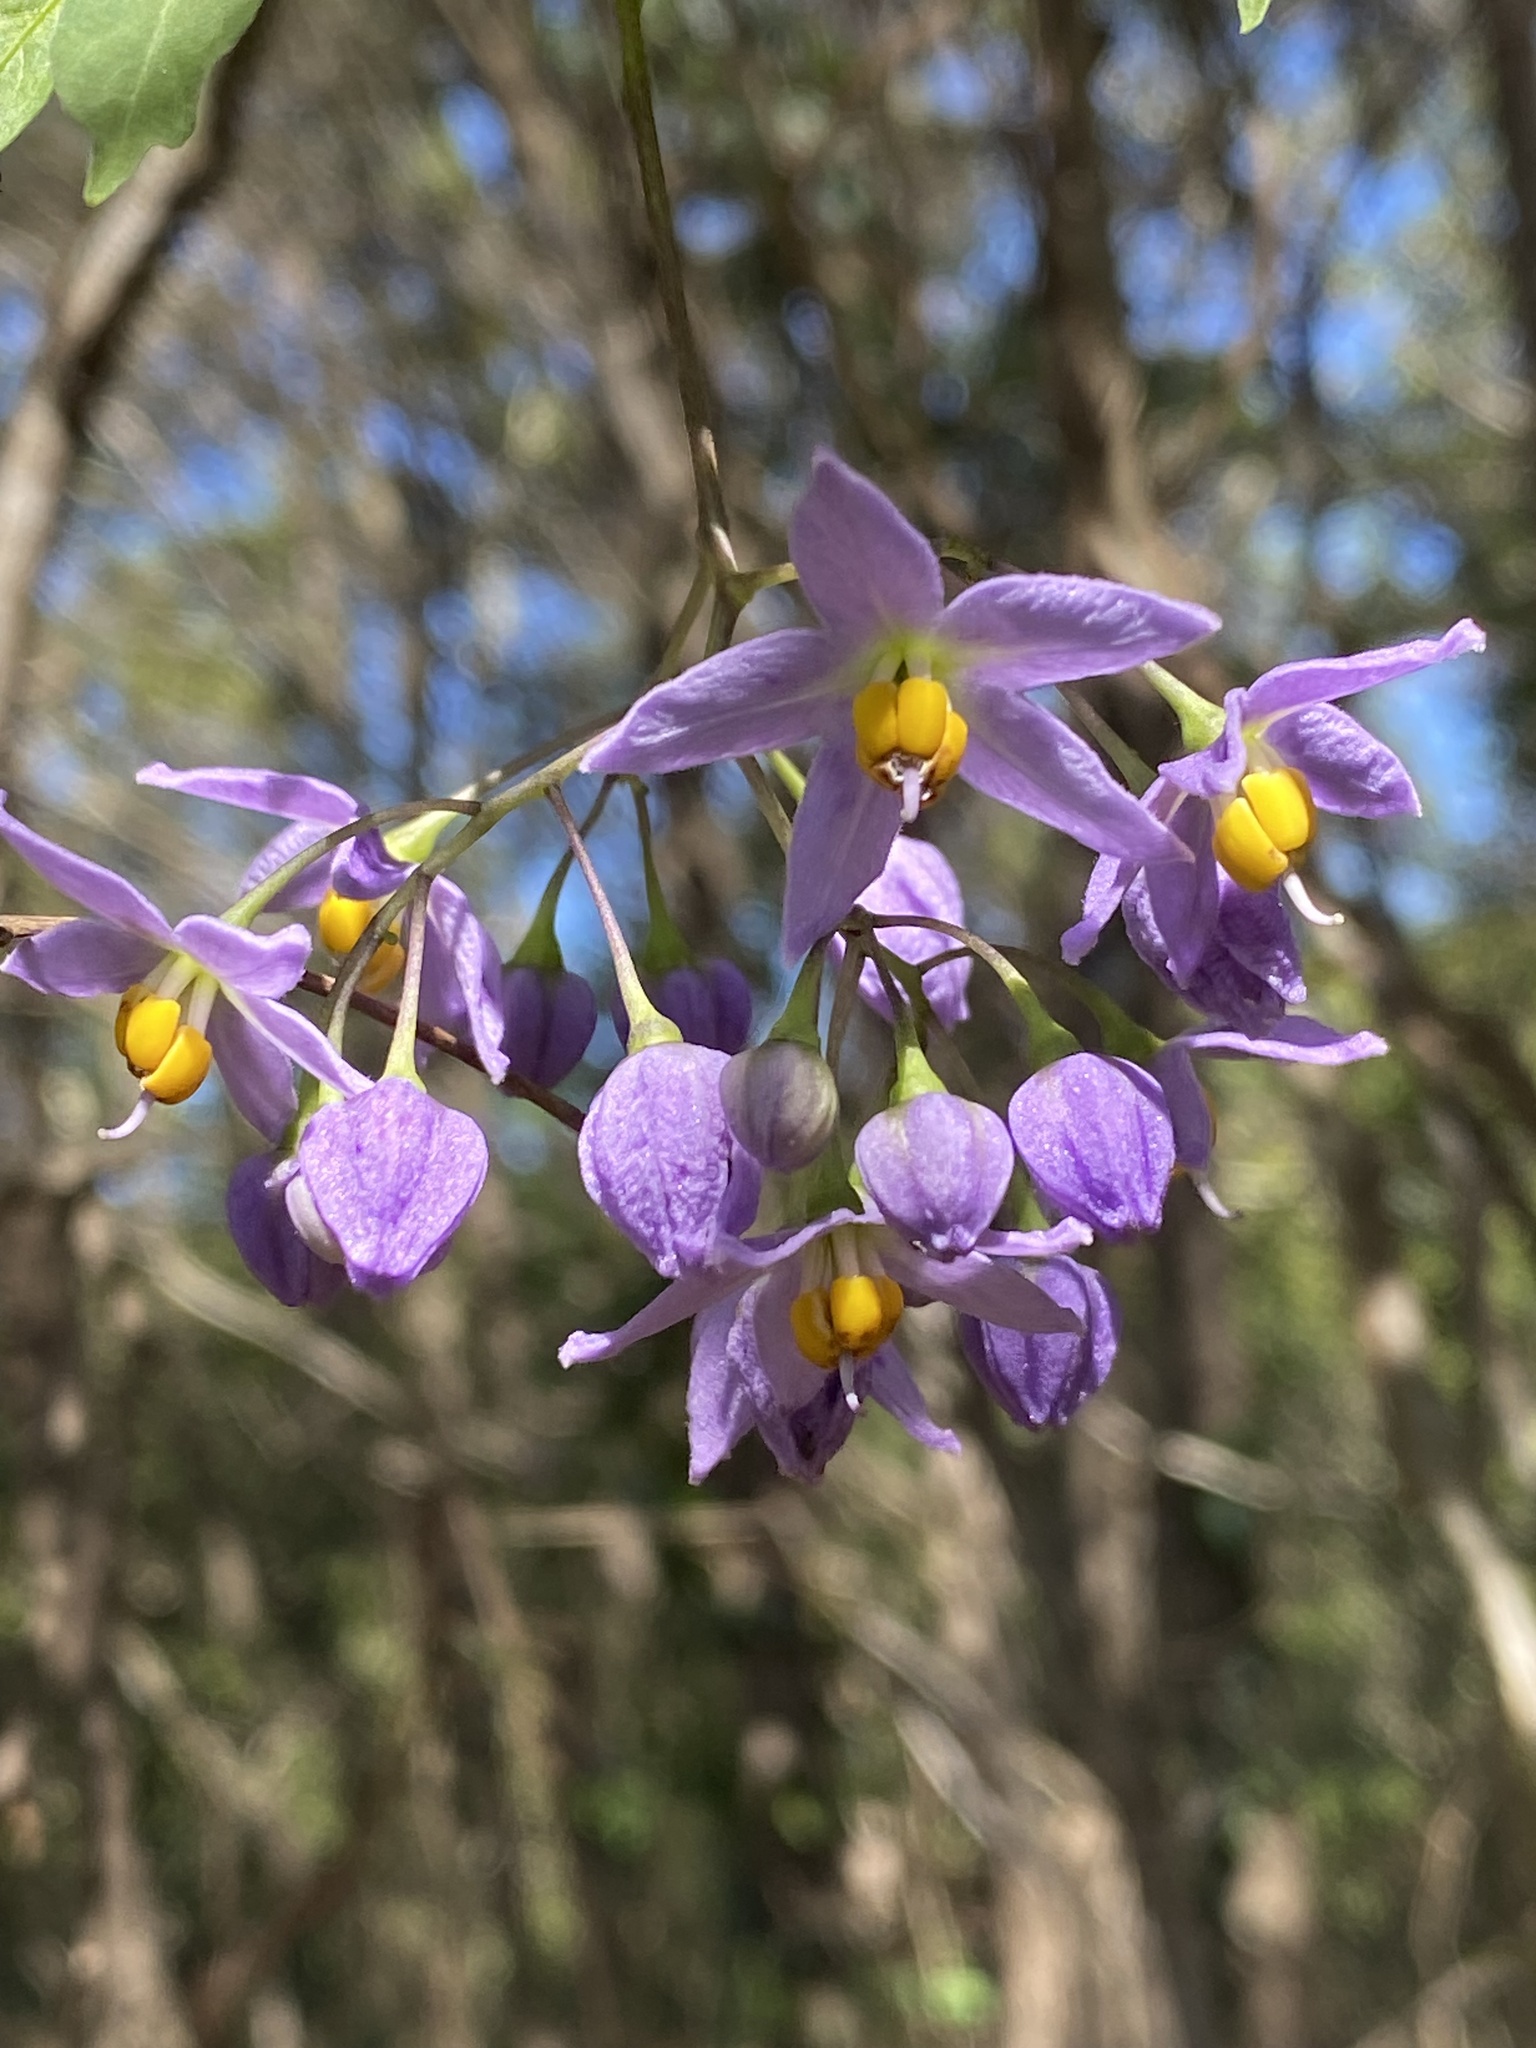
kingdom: Plantae
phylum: Tracheophyta
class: Magnoliopsida
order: Solanales
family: Solanaceae
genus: Solanum
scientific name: Solanum seaforthianum
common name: Brazilian nightshade
